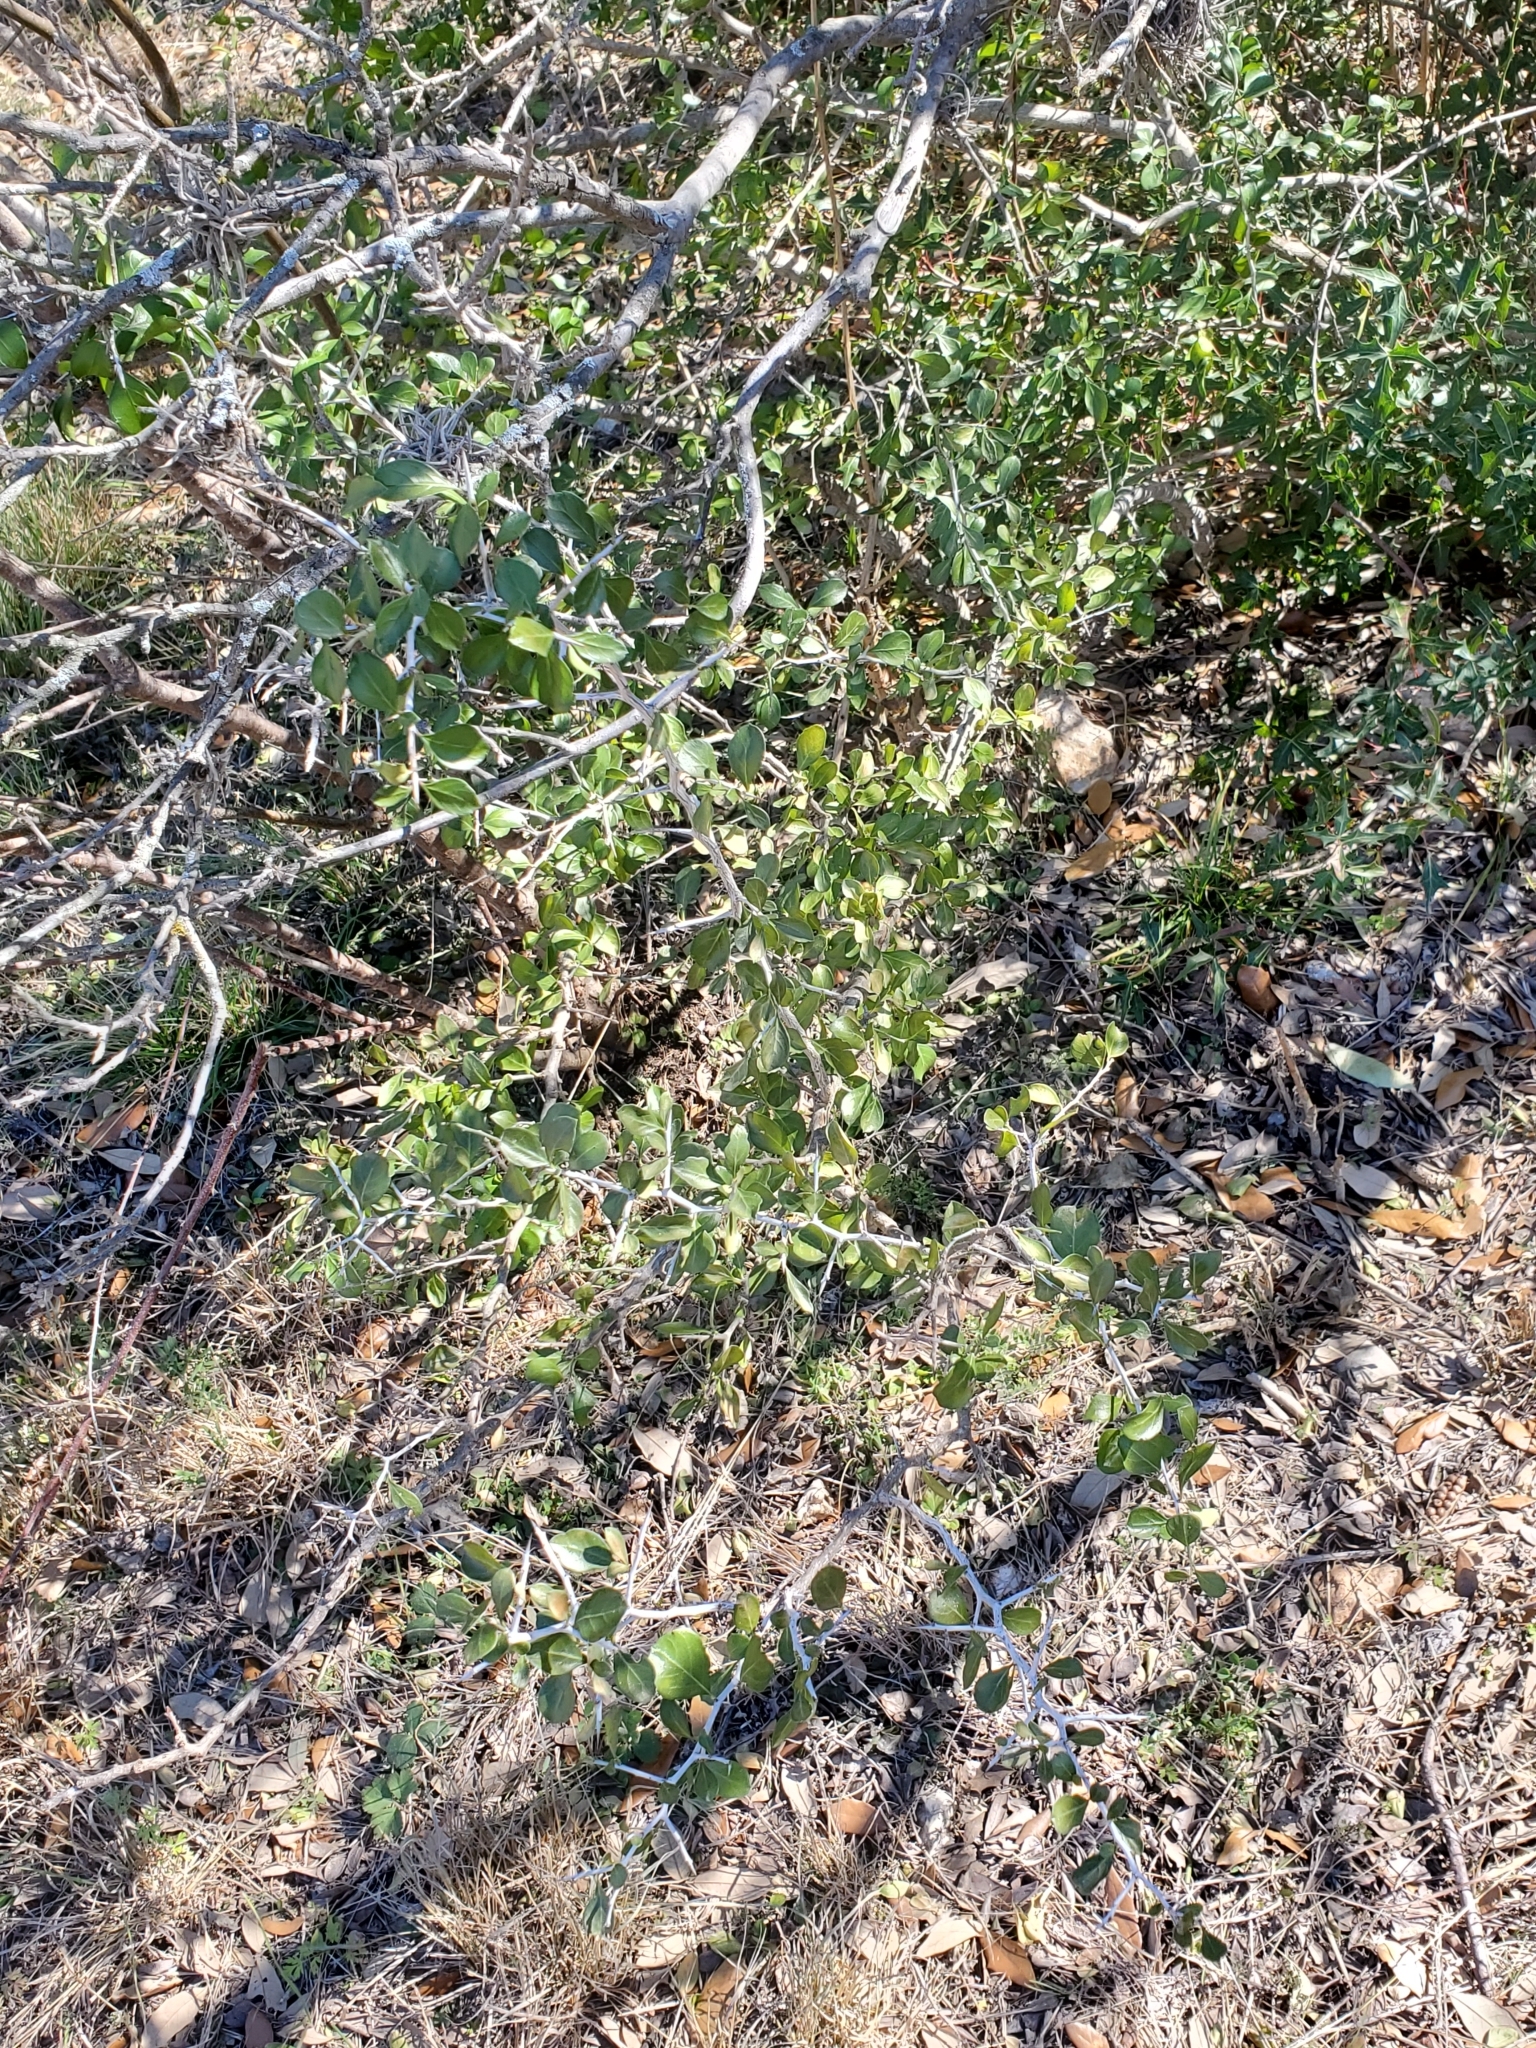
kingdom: Plantae
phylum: Tracheophyta
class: Magnoliopsida
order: Rosales
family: Rhamnaceae
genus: Condalia
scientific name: Condalia hookeri
